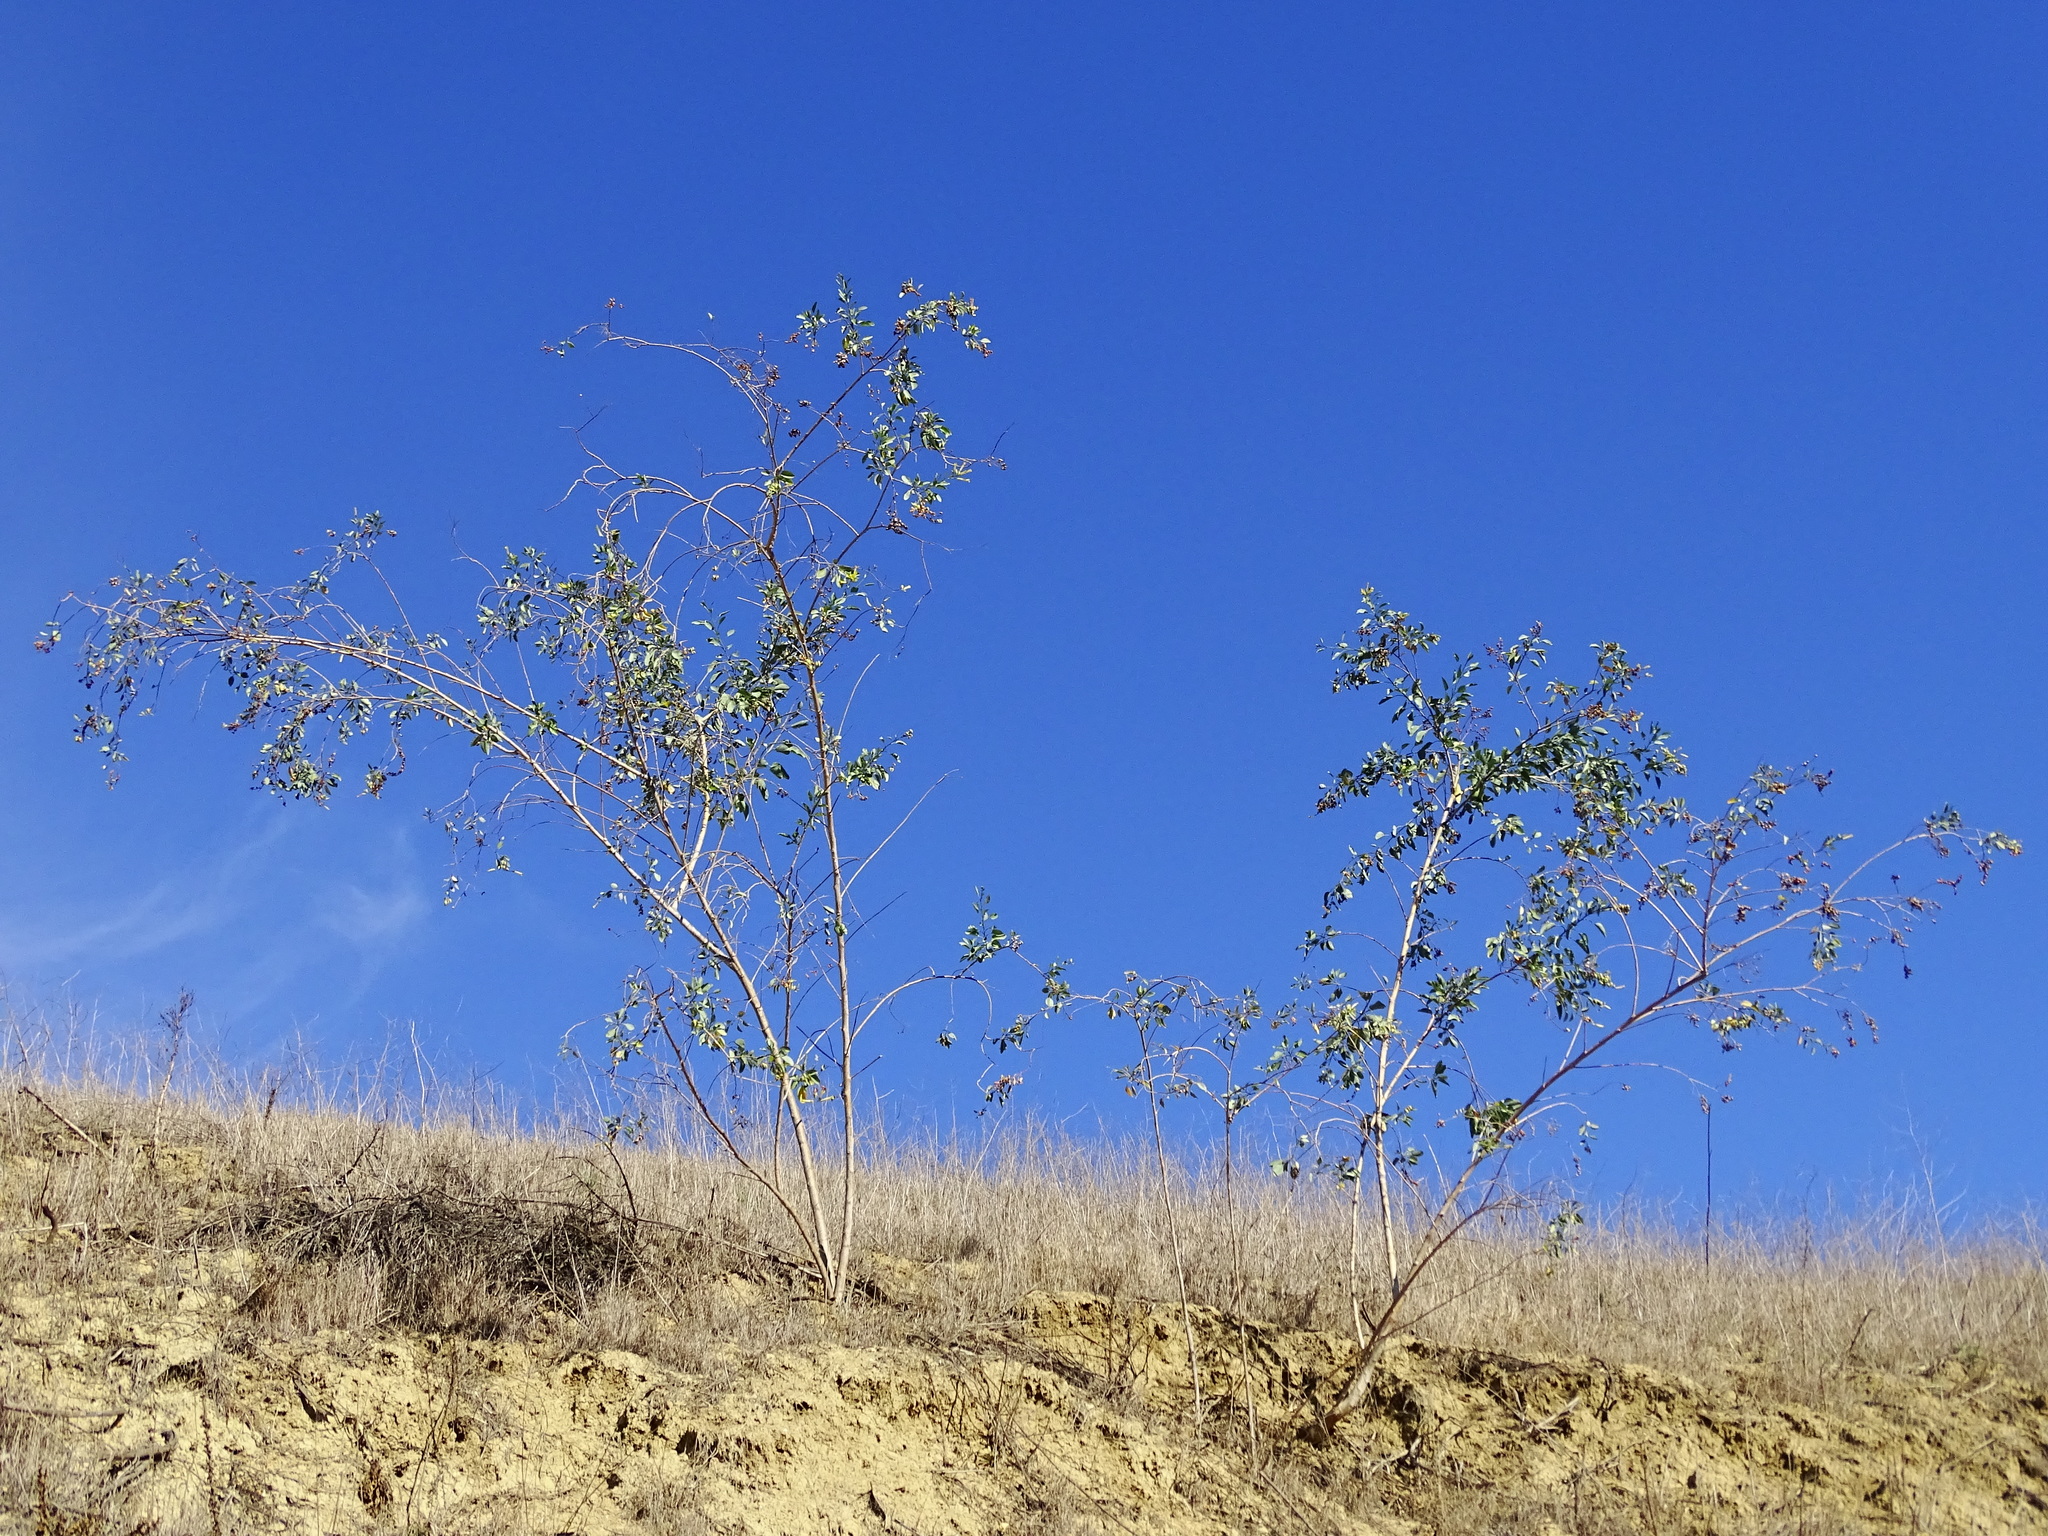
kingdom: Plantae
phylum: Tracheophyta
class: Magnoliopsida
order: Solanales
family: Solanaceae
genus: Nicotiana
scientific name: Nicotiana glauca
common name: Tree tobacco
